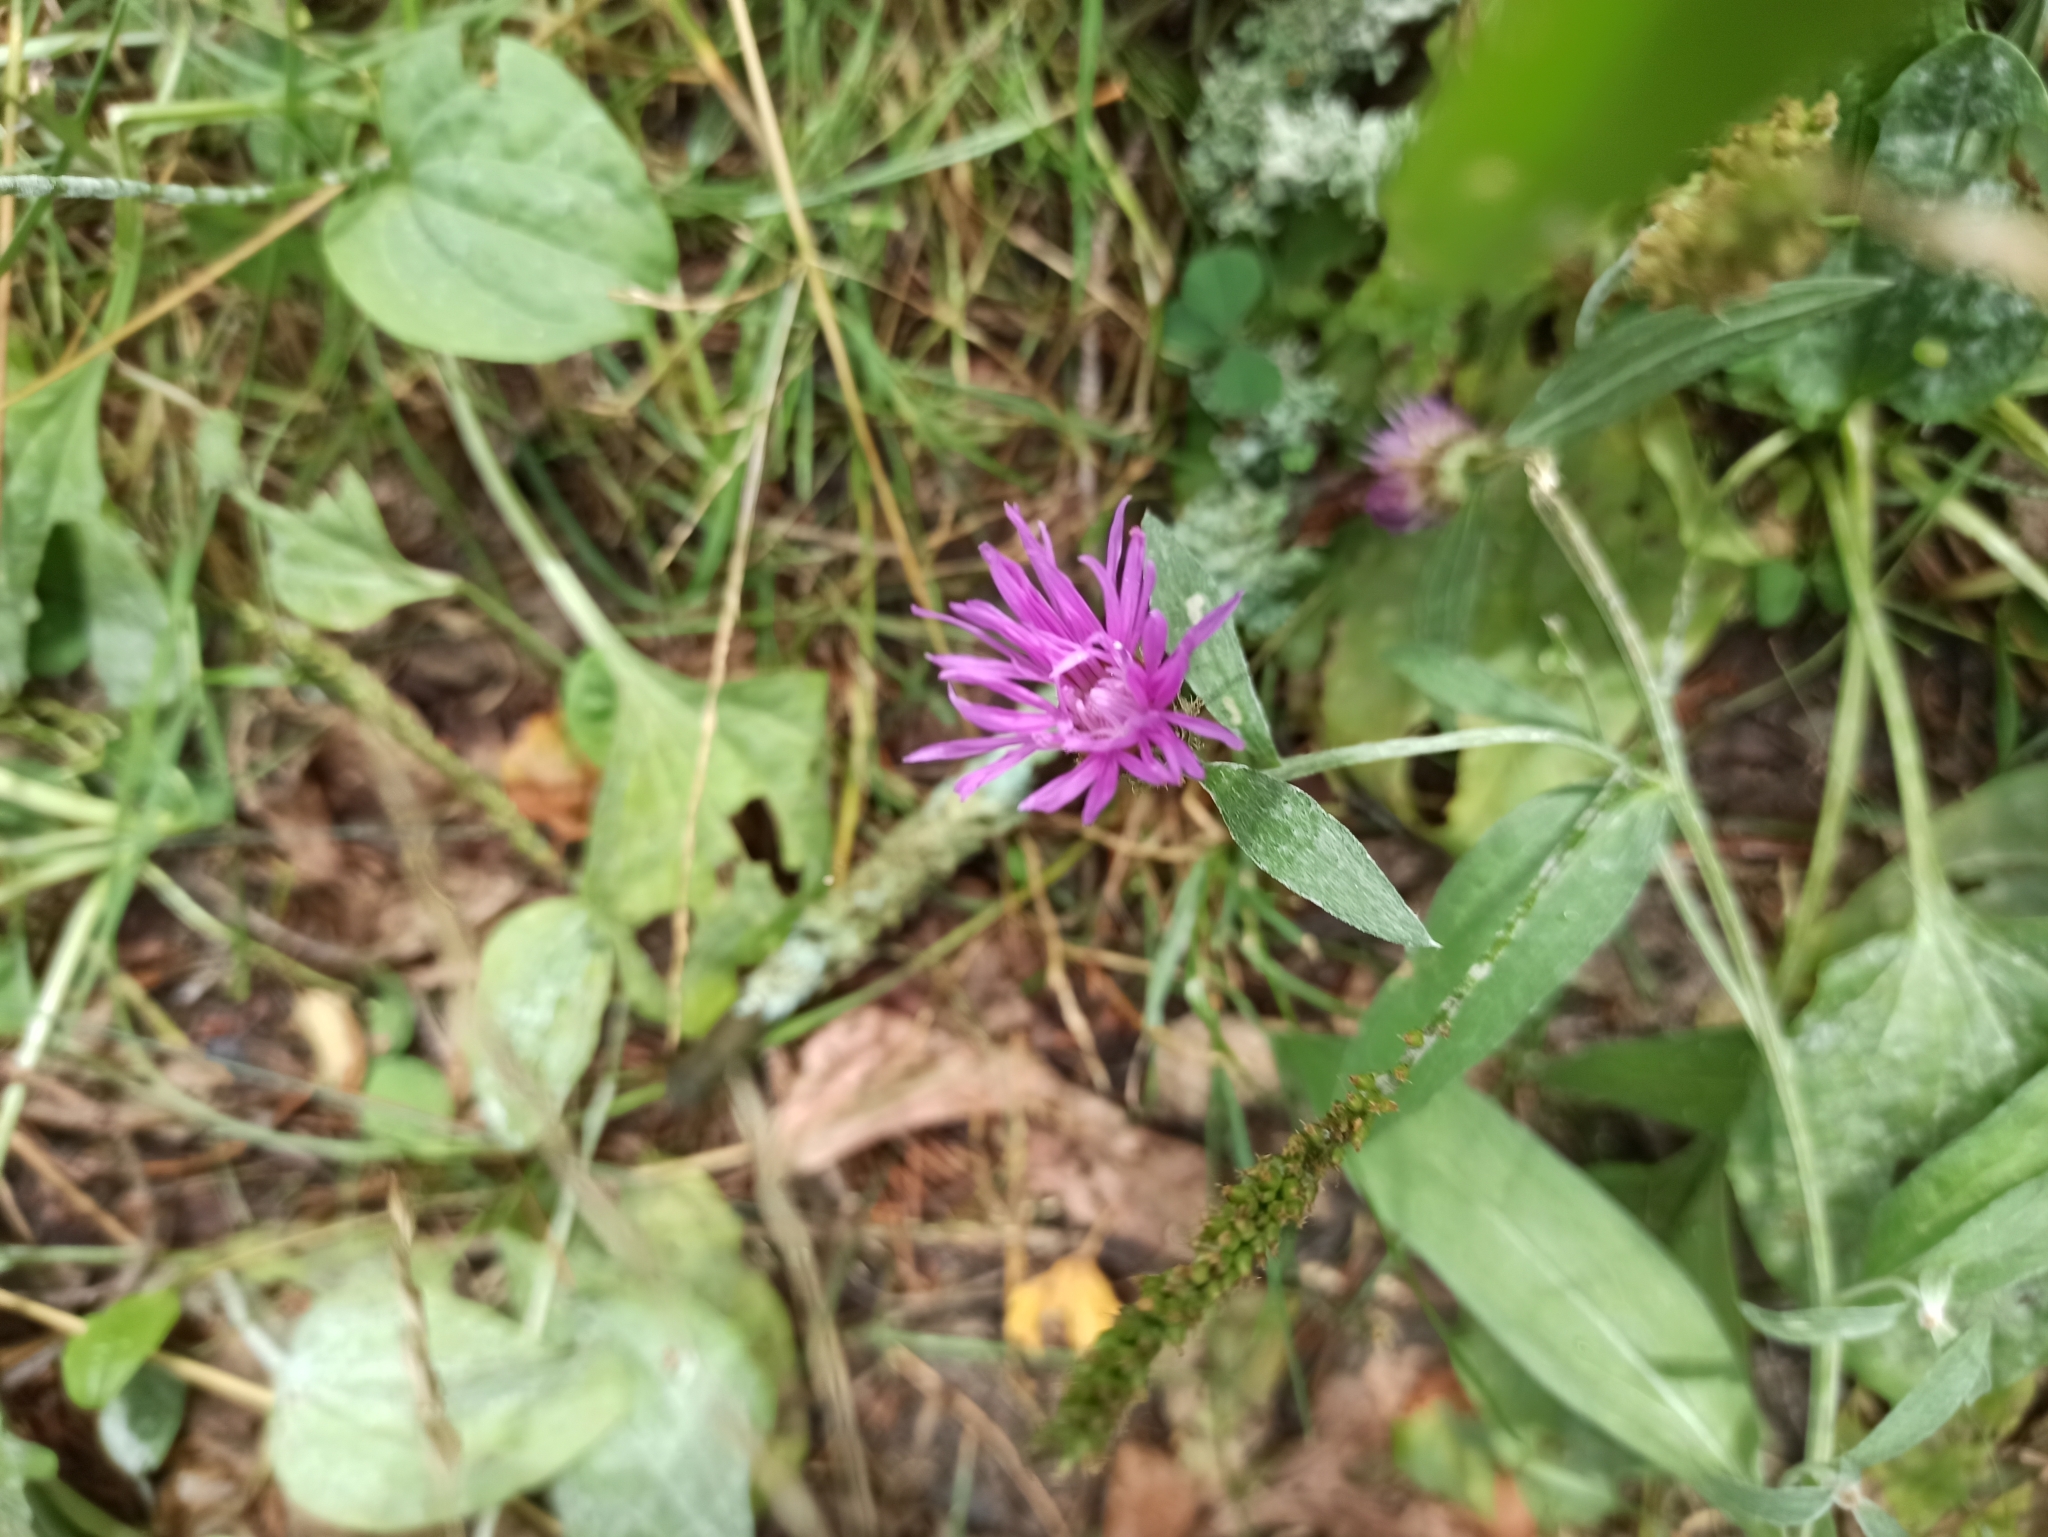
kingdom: Plantae
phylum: Tracheophyta
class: Magnoliopsida
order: Asterales
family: Asteraceae
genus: Centaurea
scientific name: Centaurea phrygia
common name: Wig knapweed
